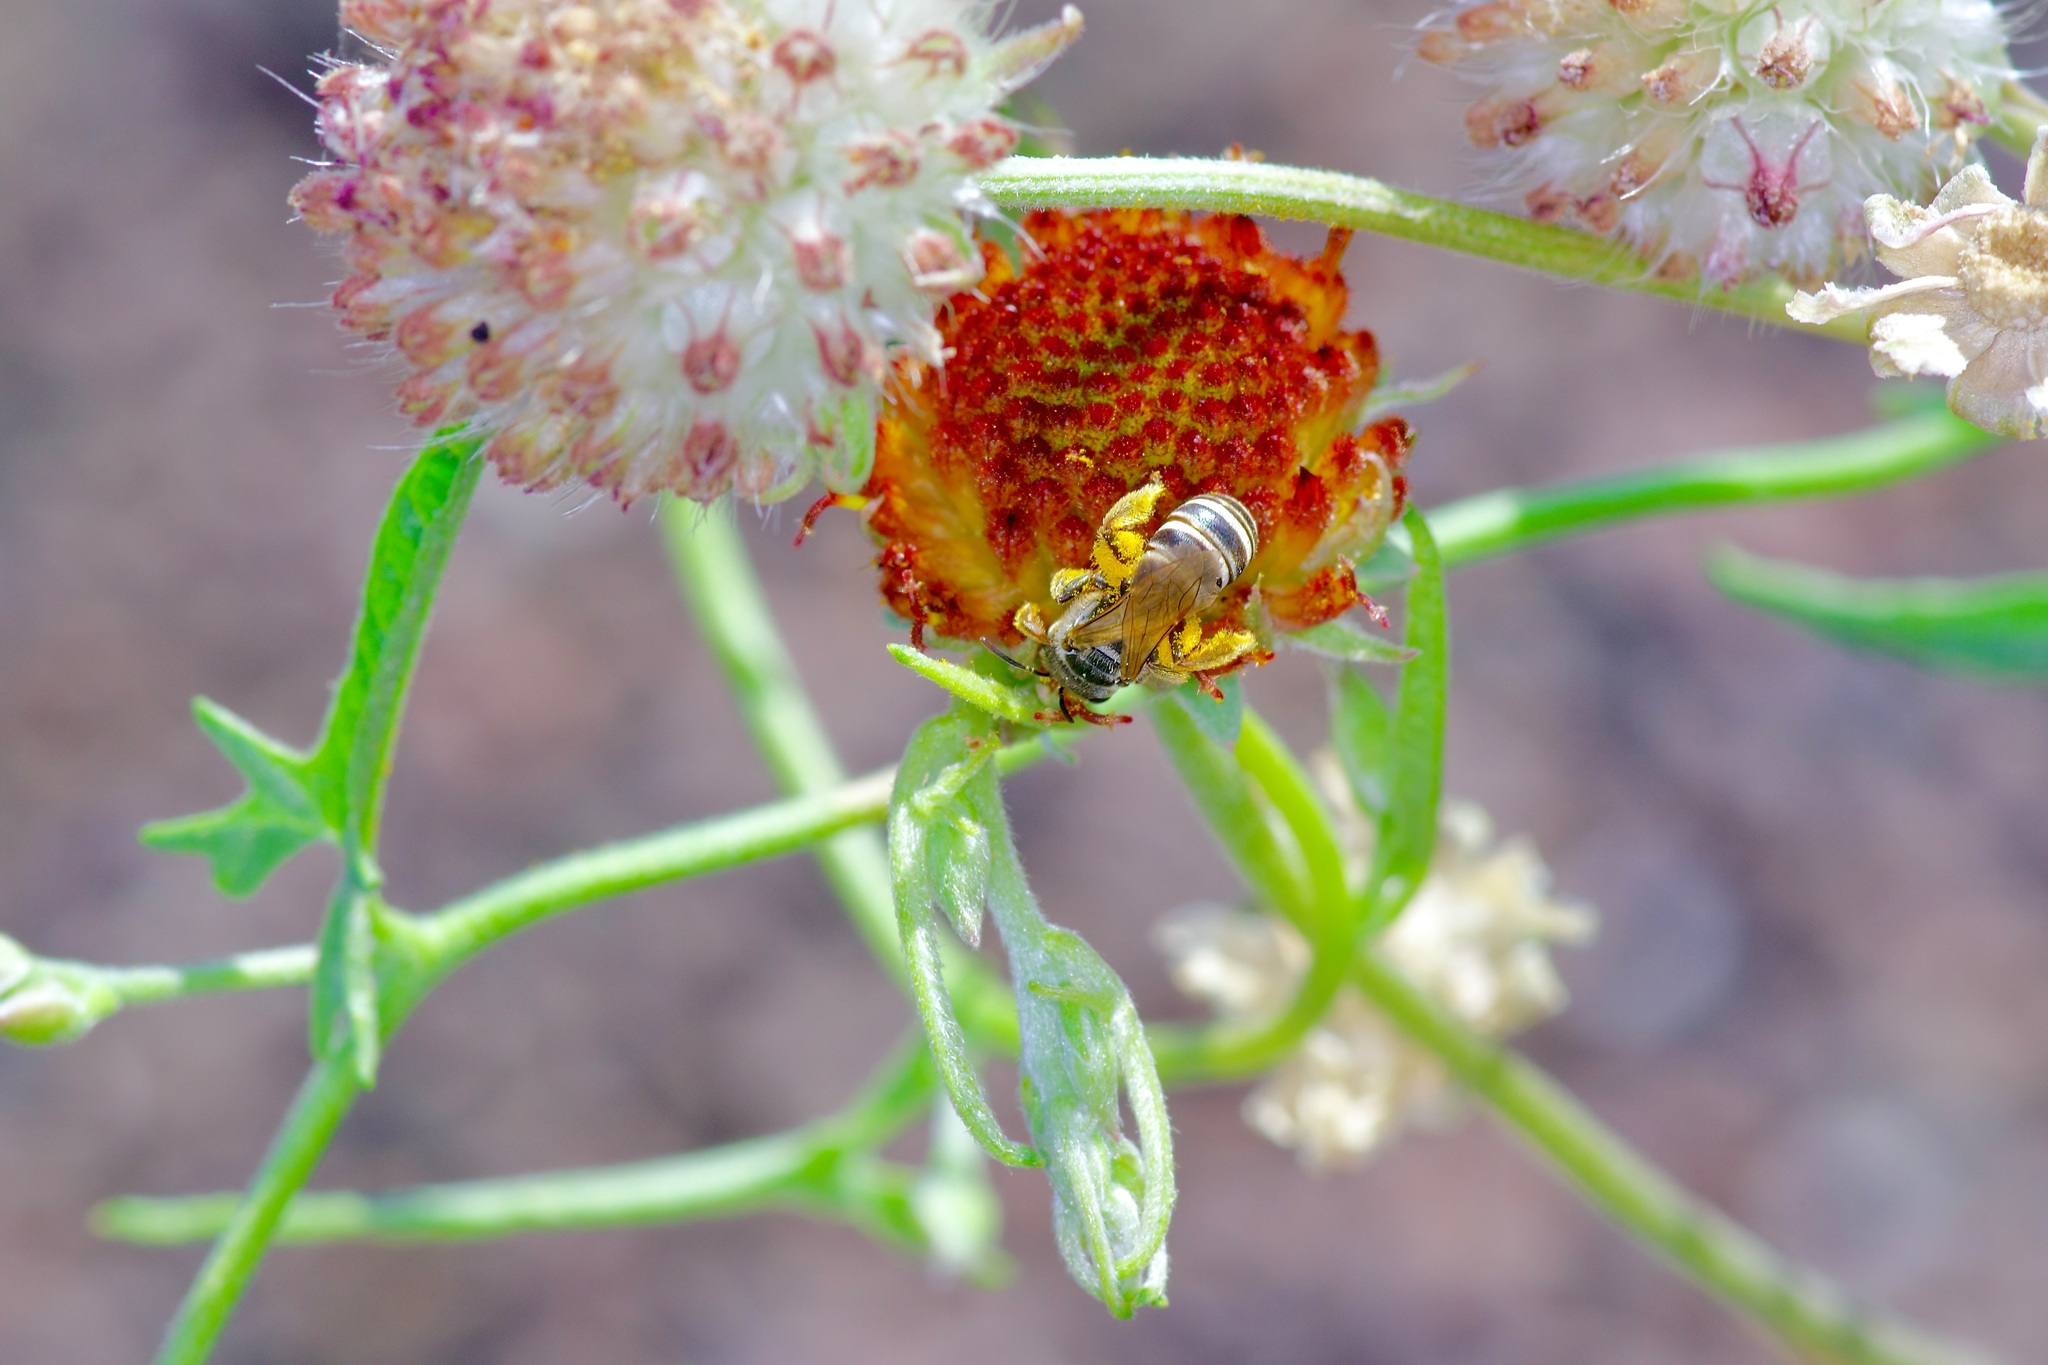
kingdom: Animalia
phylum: Arthropoda
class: Insecta
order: Hymenoptera
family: Halictidae
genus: Halictus
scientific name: Halictus ligatus
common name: Ligated furrow bee
